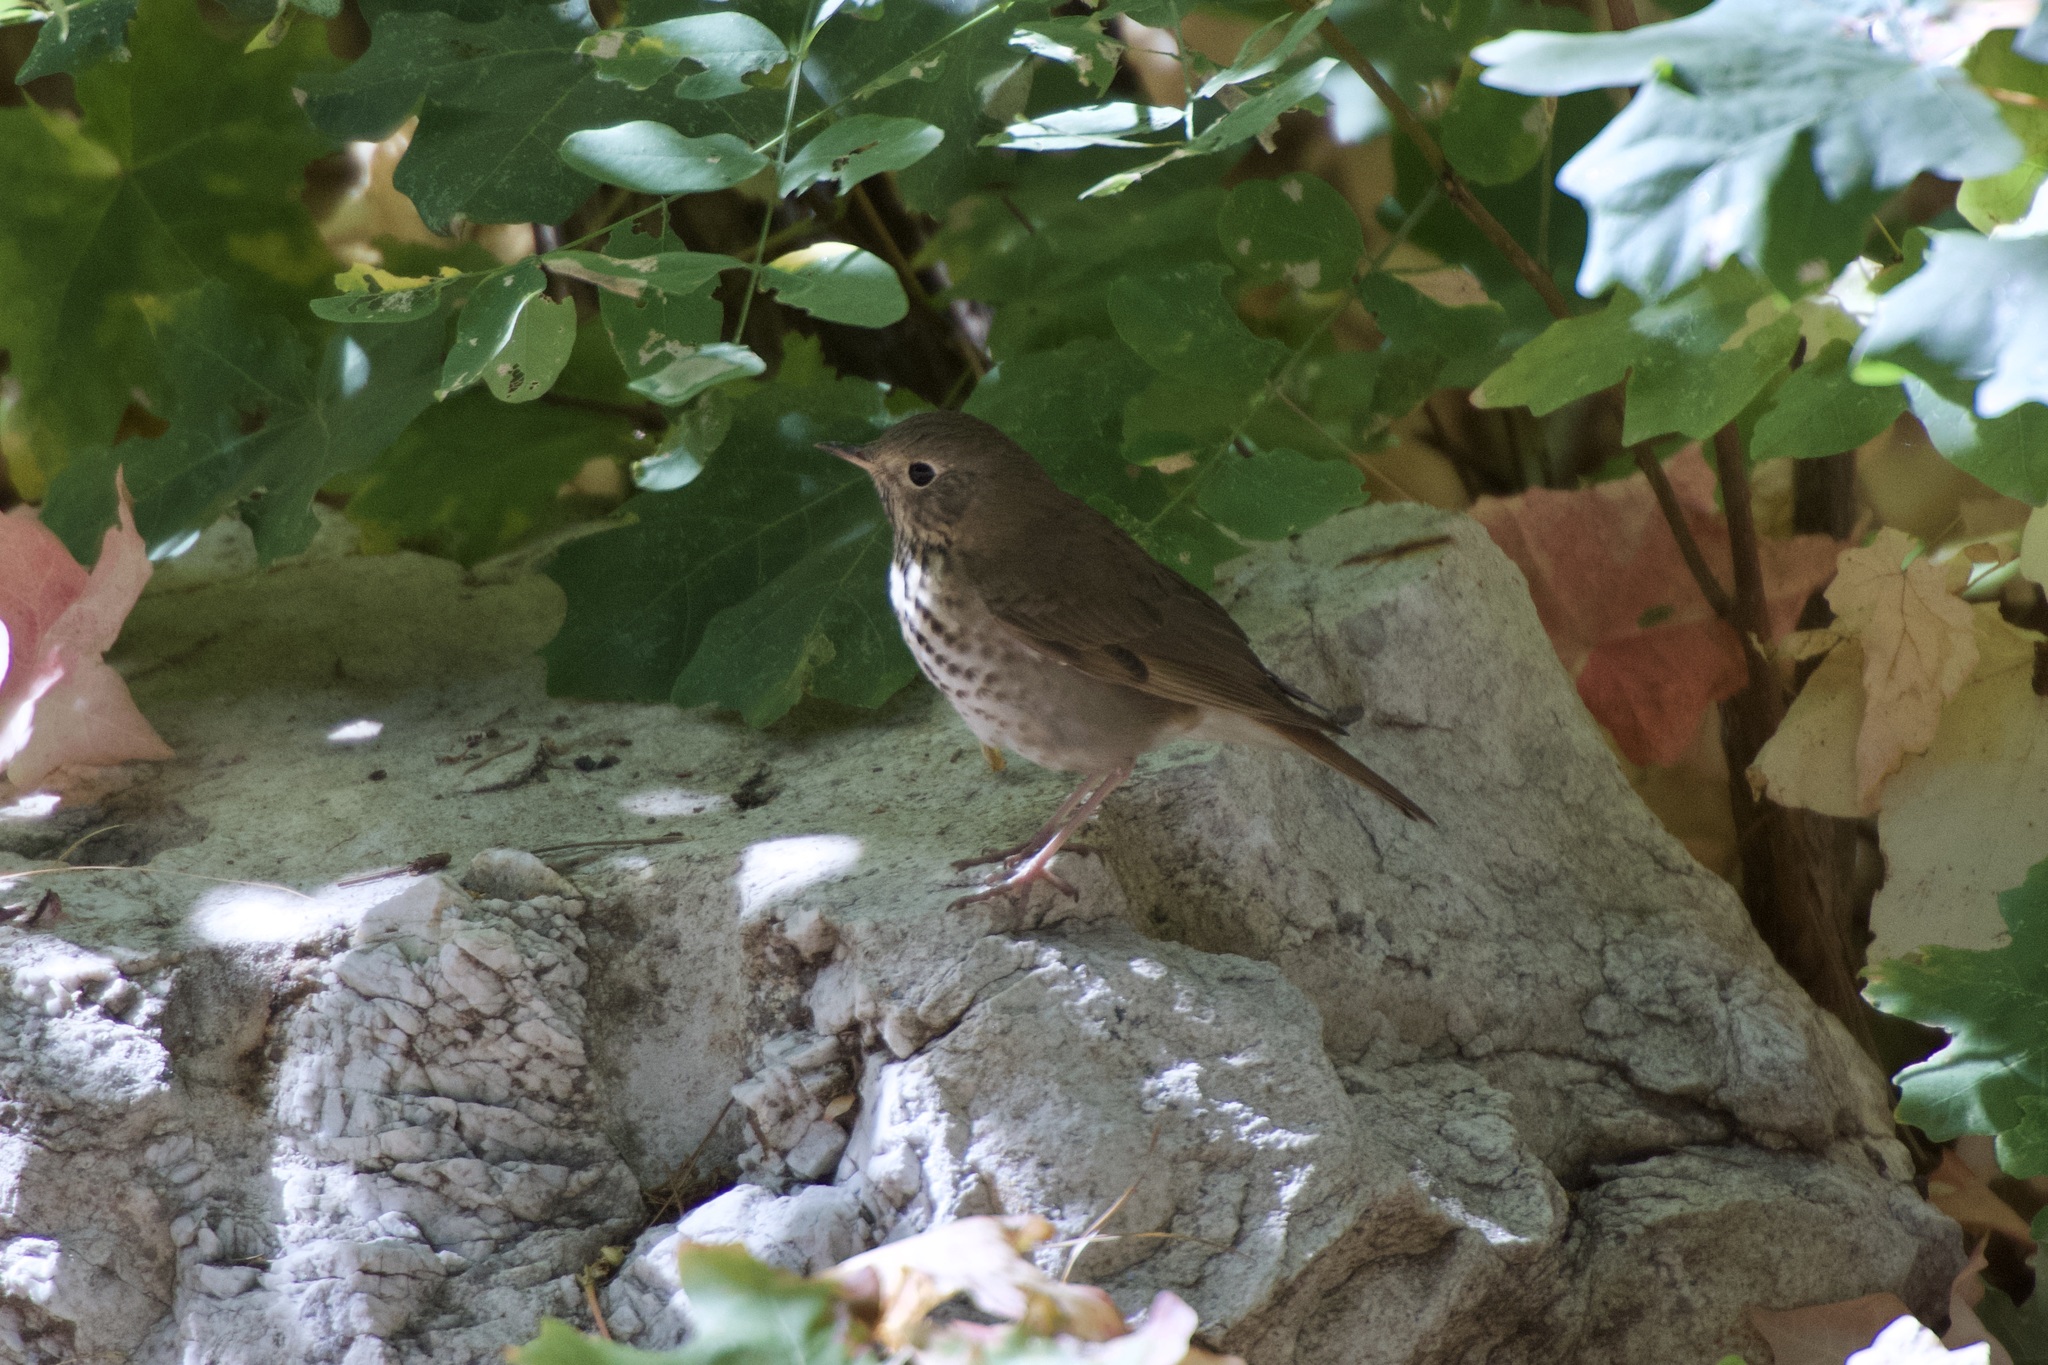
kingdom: Animalia
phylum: Chordata
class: Aves
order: Passeriformes
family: Turdidae
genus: Catharus
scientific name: Catharus guttatus
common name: Hermit thrush
